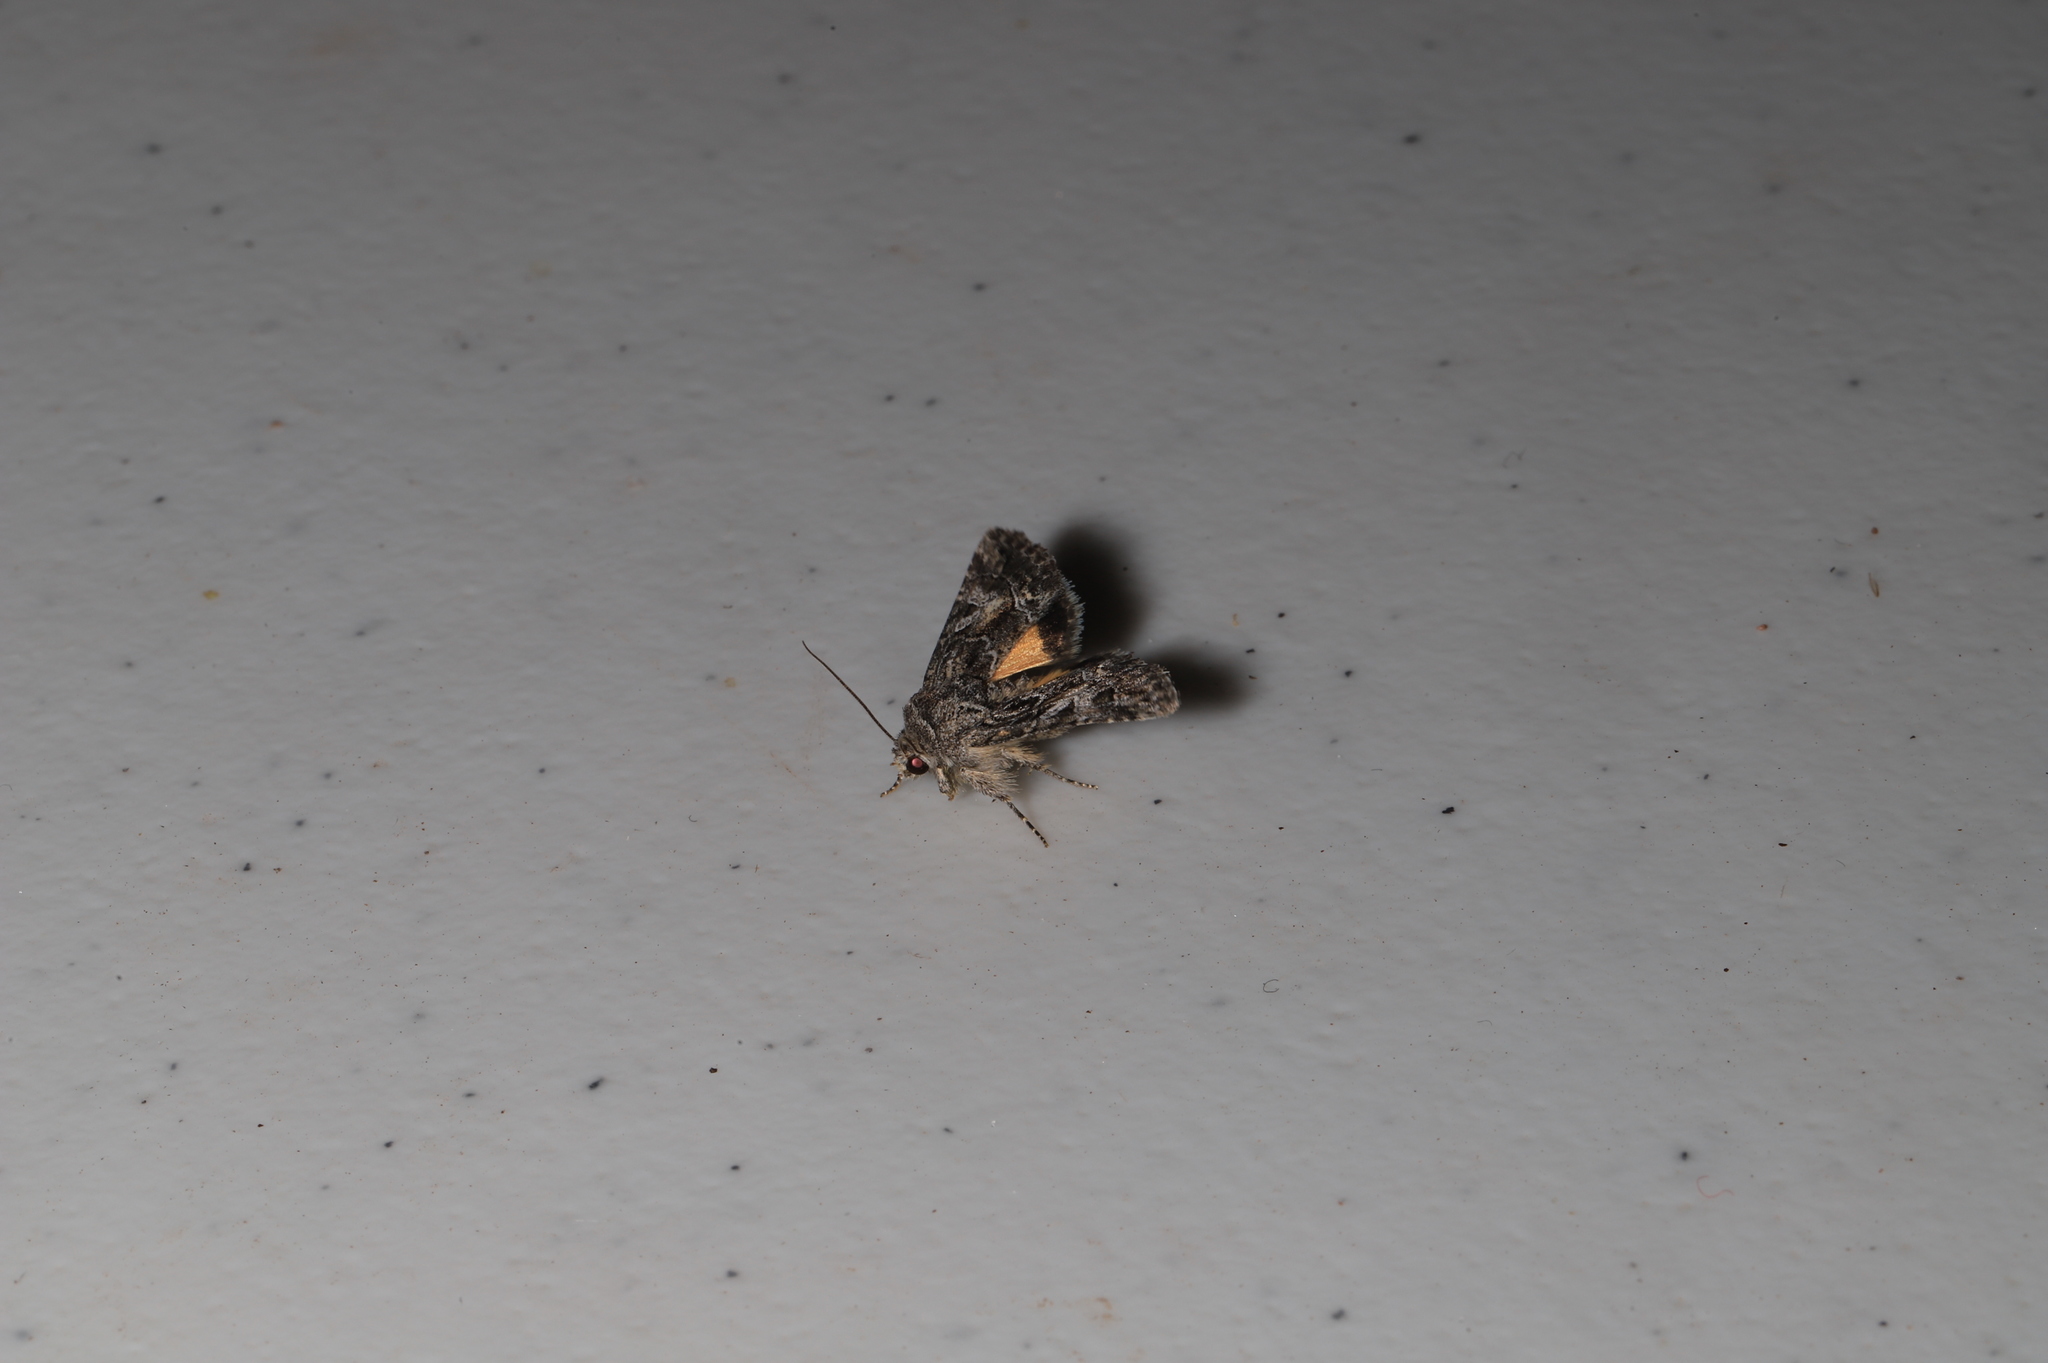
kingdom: Animalia
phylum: Arthropoda
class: Insecta
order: Lepidoptera
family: Noctuidae
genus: Pseudanarta
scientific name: Pseudanarta crocea
